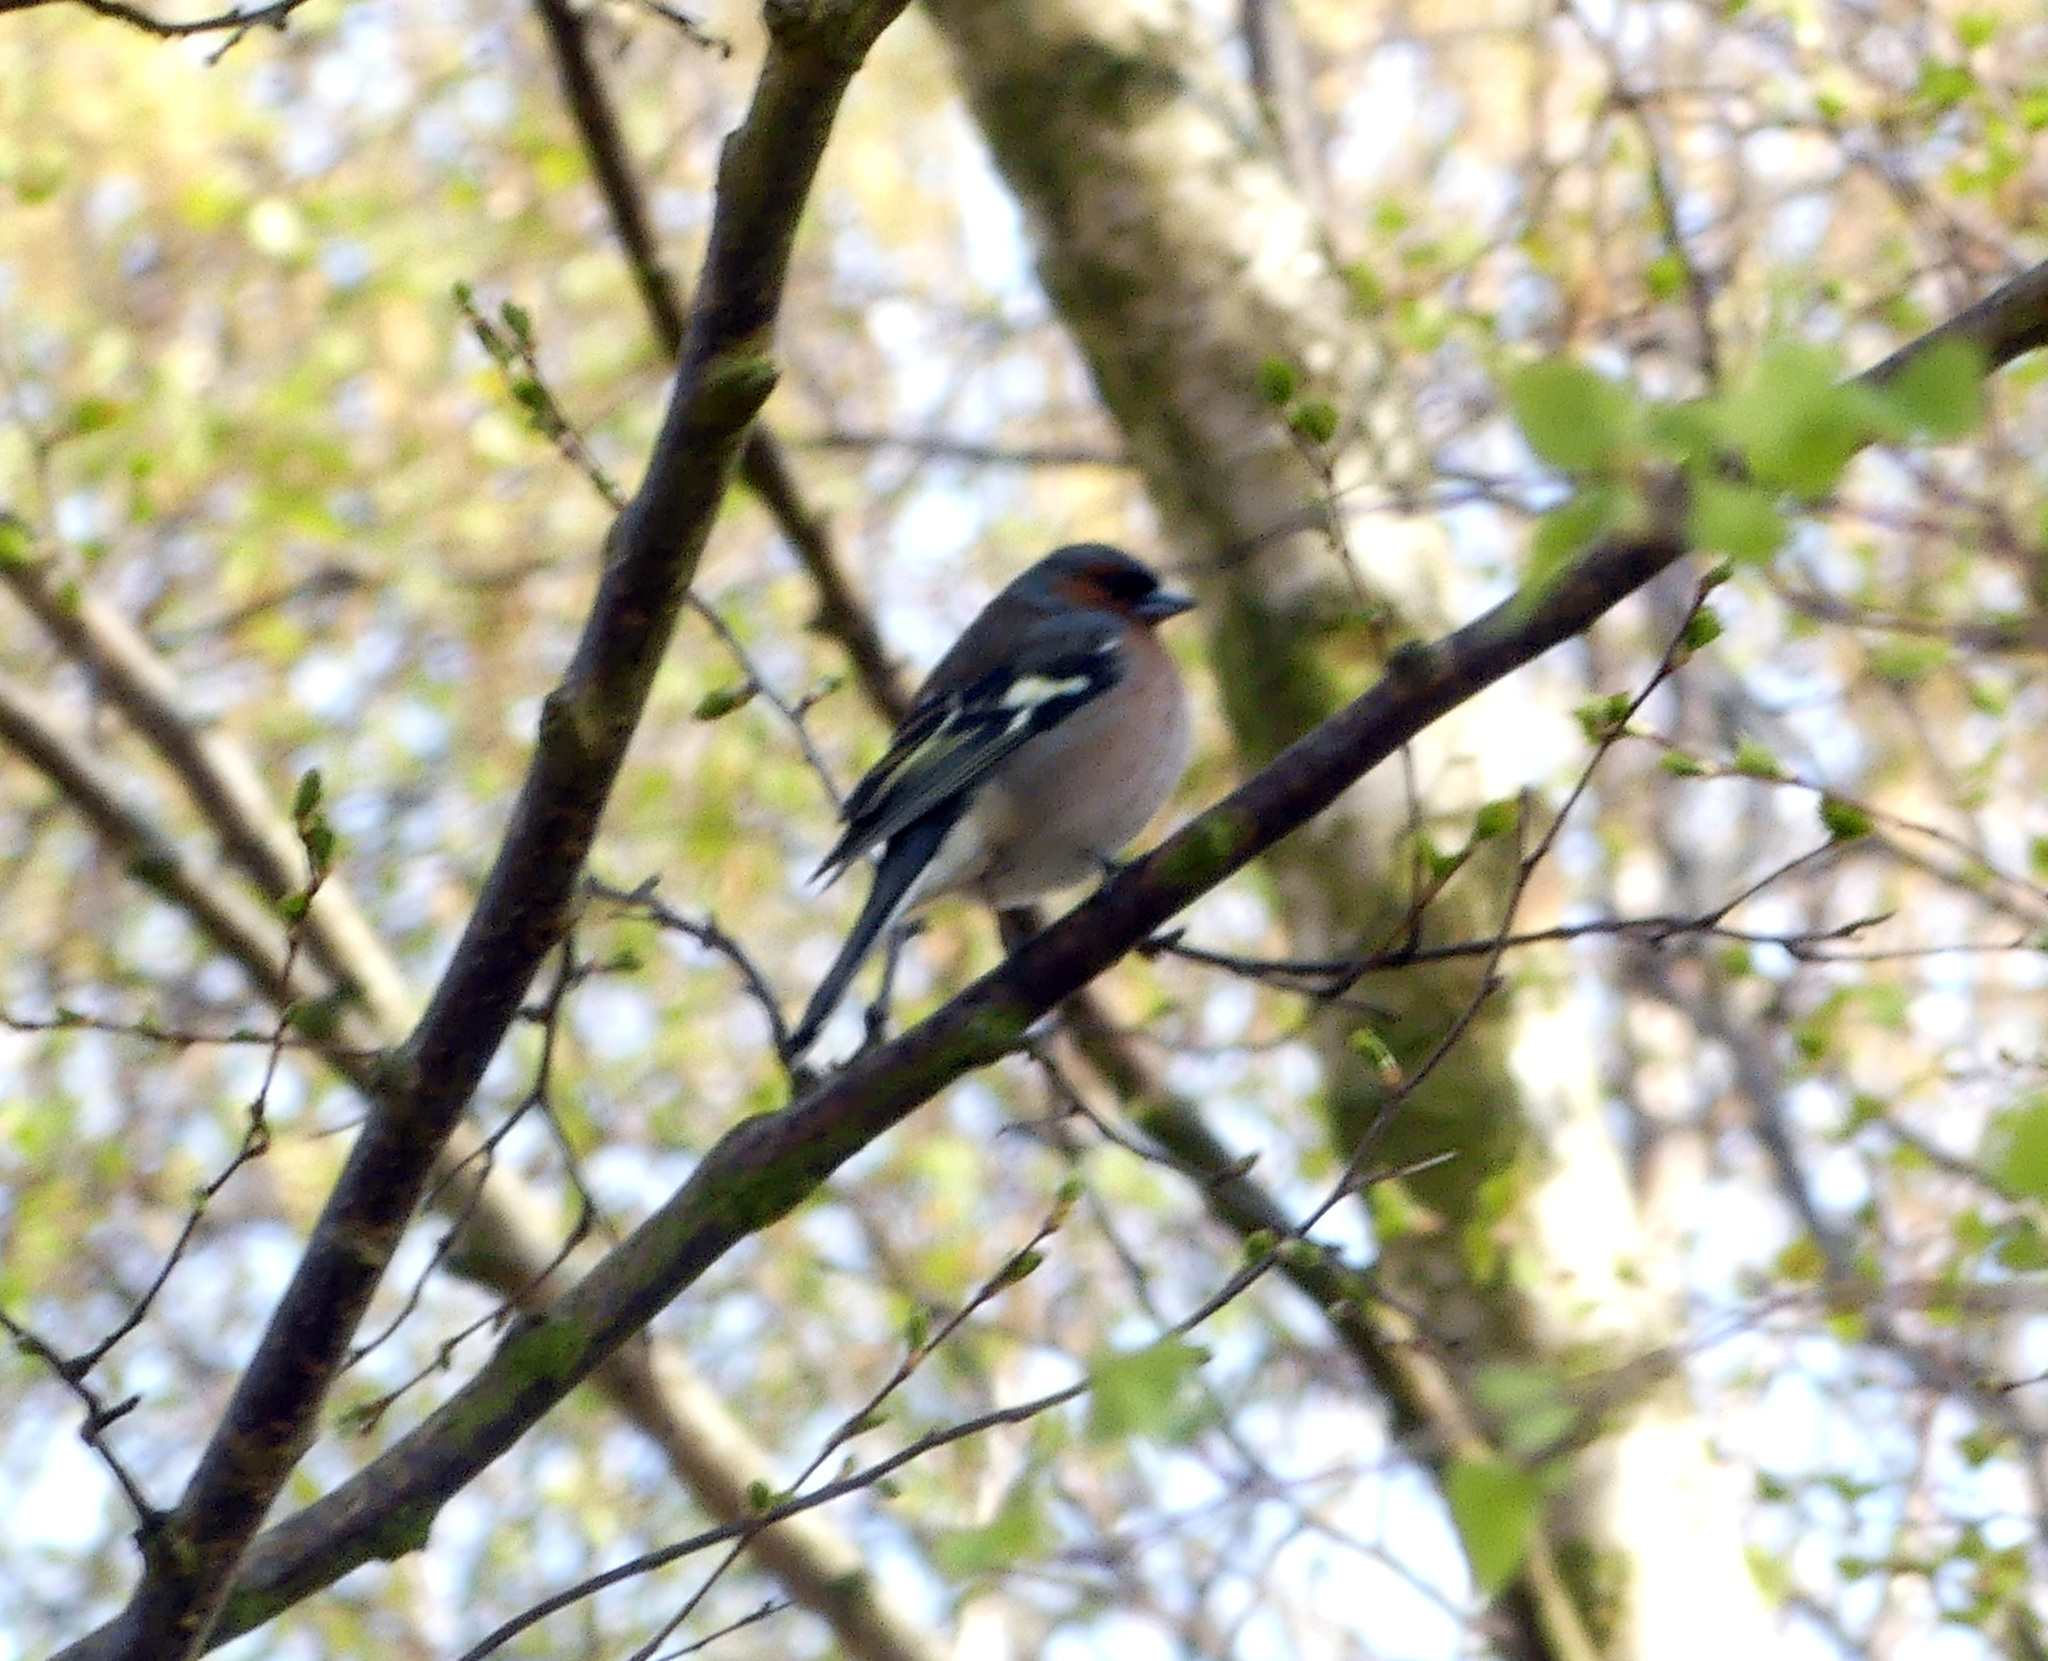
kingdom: Animalia
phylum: Chordata
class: Aves
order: Passeriformes
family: Fringillidae
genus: Fringilla
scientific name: Fringilla coelebs
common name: Common chaffinch
